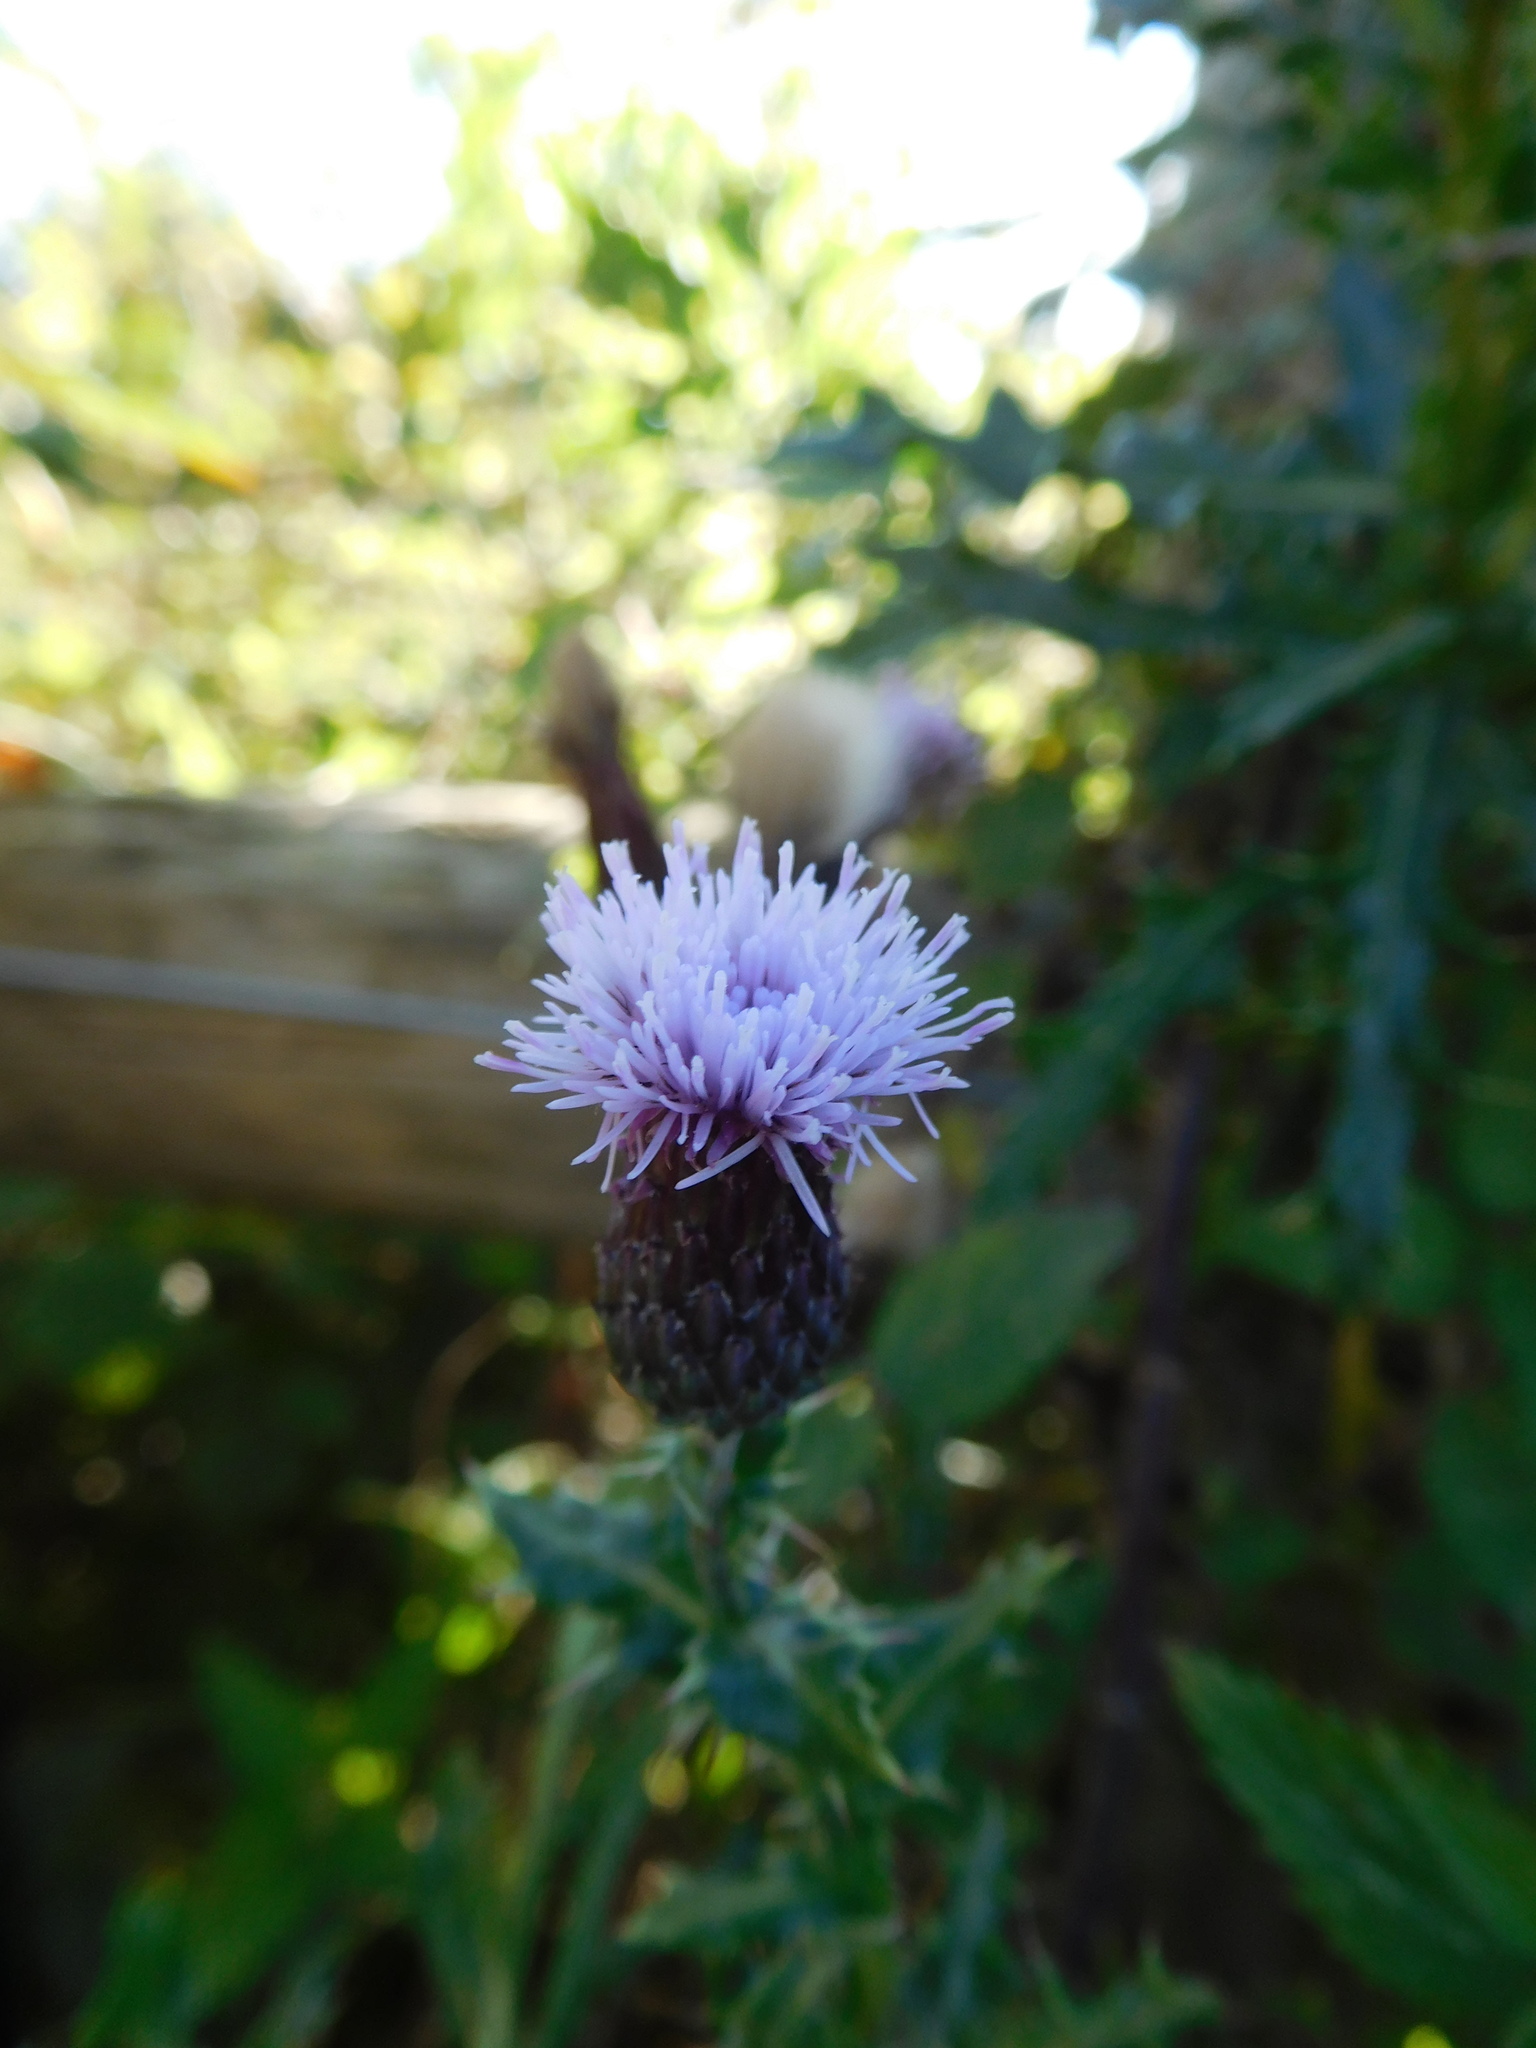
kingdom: Plantae
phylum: Tracheophyta
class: Magnoliopsida
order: Asterales
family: Asteraceae
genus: Cirsium
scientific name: Cirsium arvense
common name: Creeping thistle
